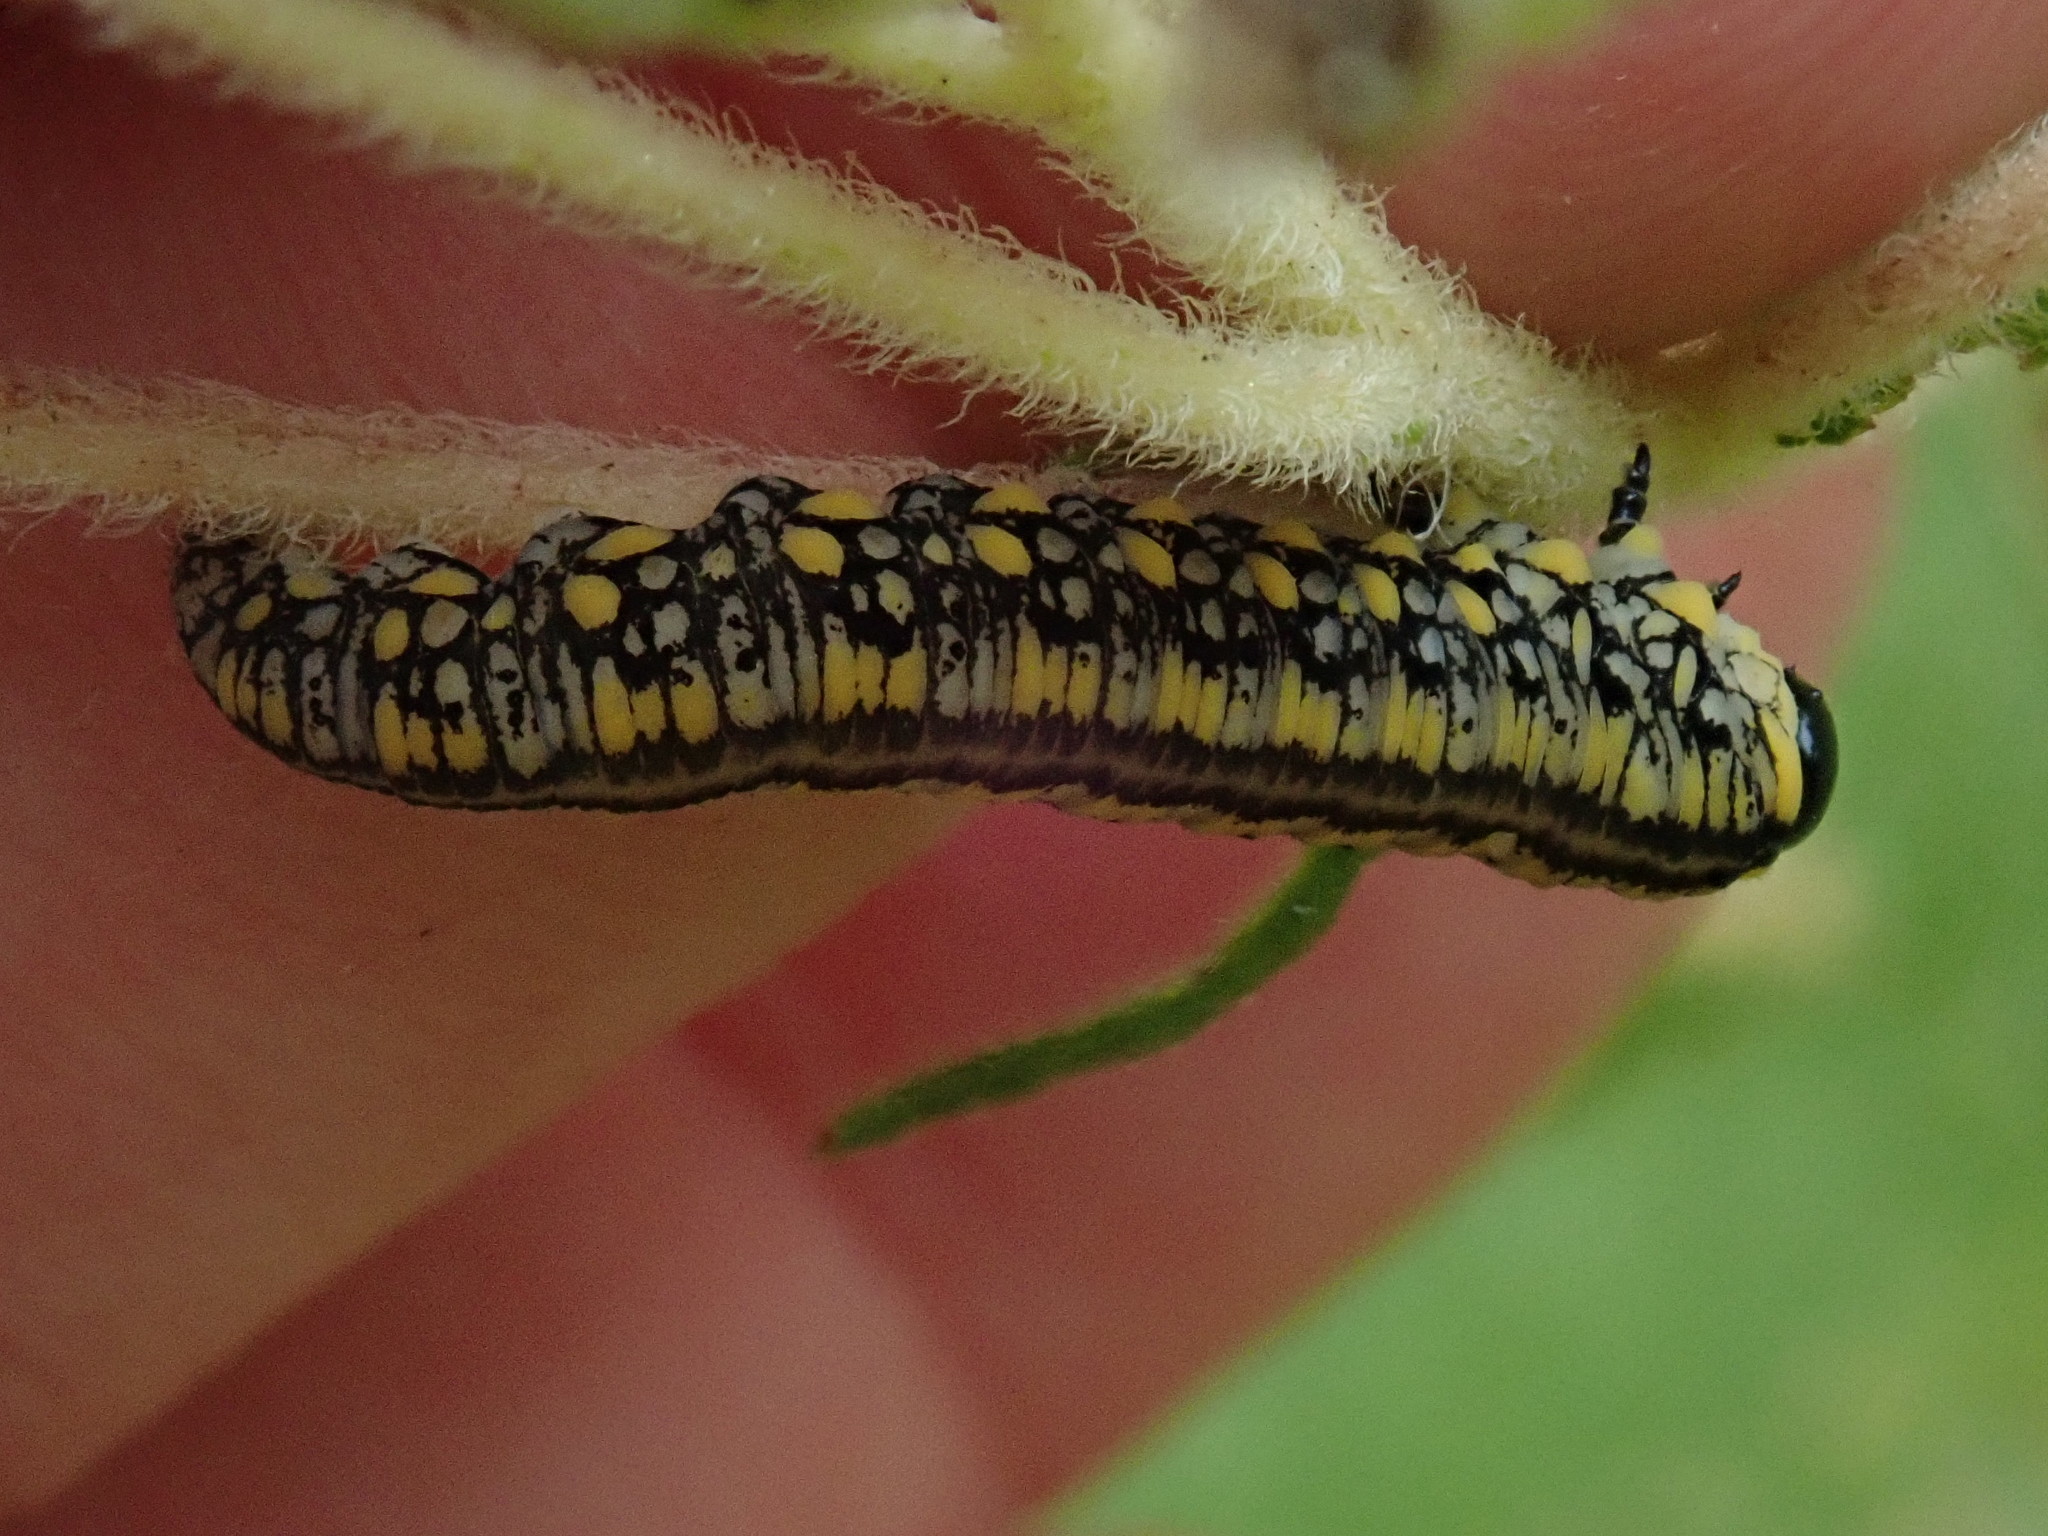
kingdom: Animalia
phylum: Arthropoda
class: Insecta
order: Hymenoptera
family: Diprionidae
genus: Diprion
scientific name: Diprion similis
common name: Pine sawfly
